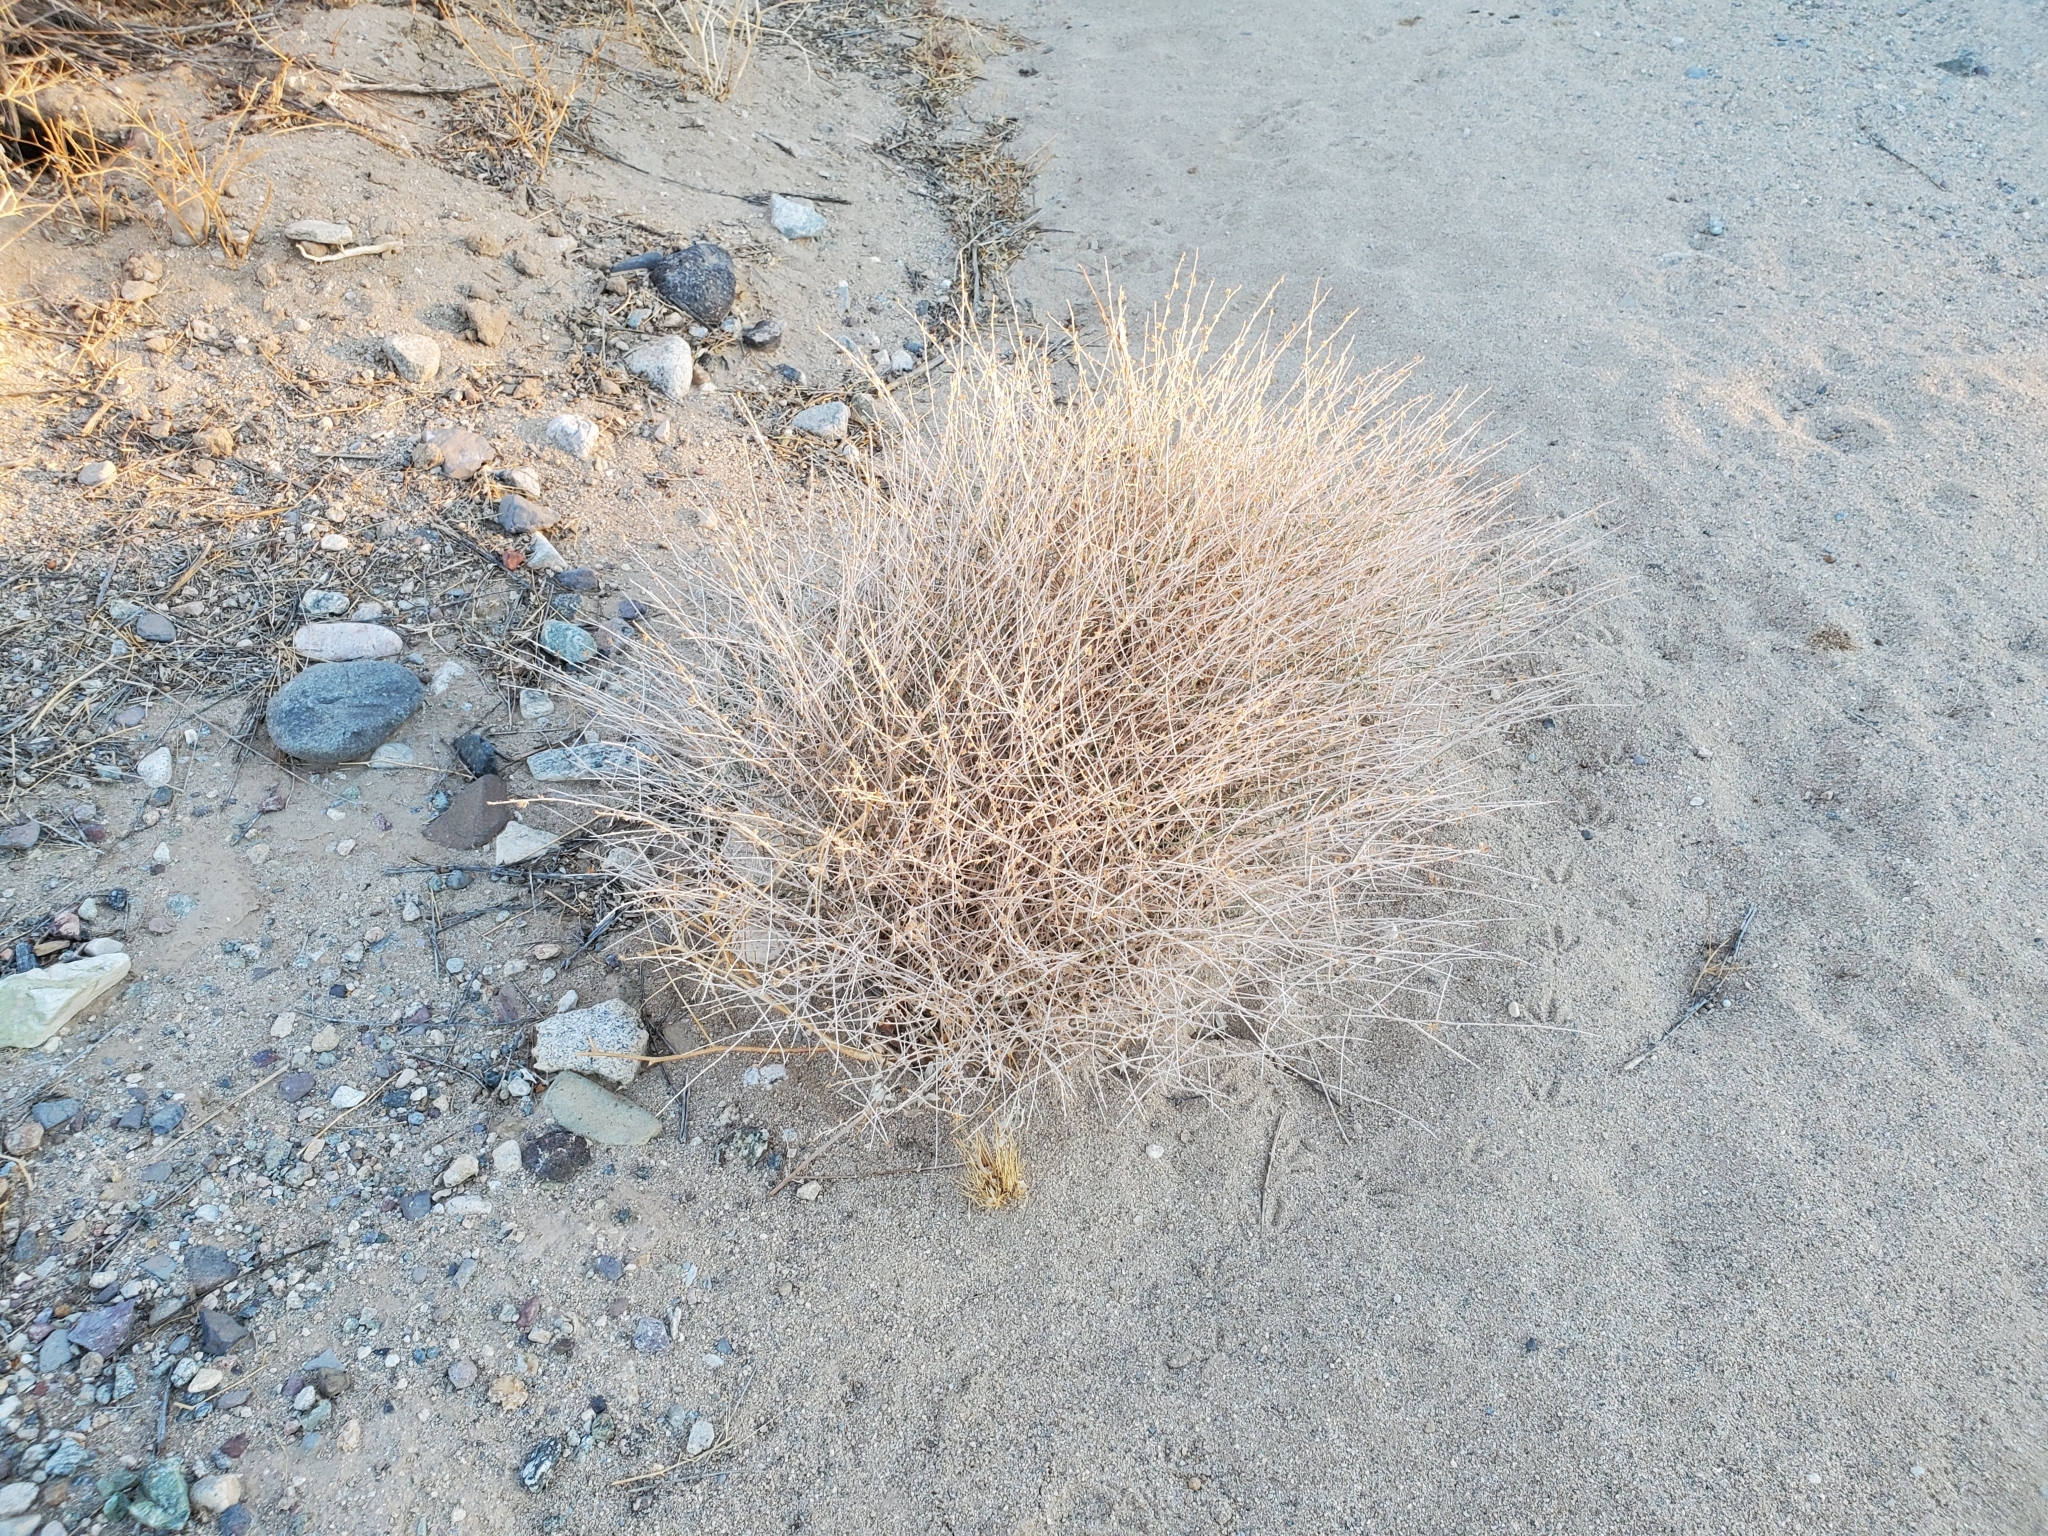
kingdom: Plantae
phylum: Tracheophyta
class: Magnoliopsida
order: Asterales
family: Asteraceae
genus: Stephanomeria
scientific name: Stephanomeria pauciflora
